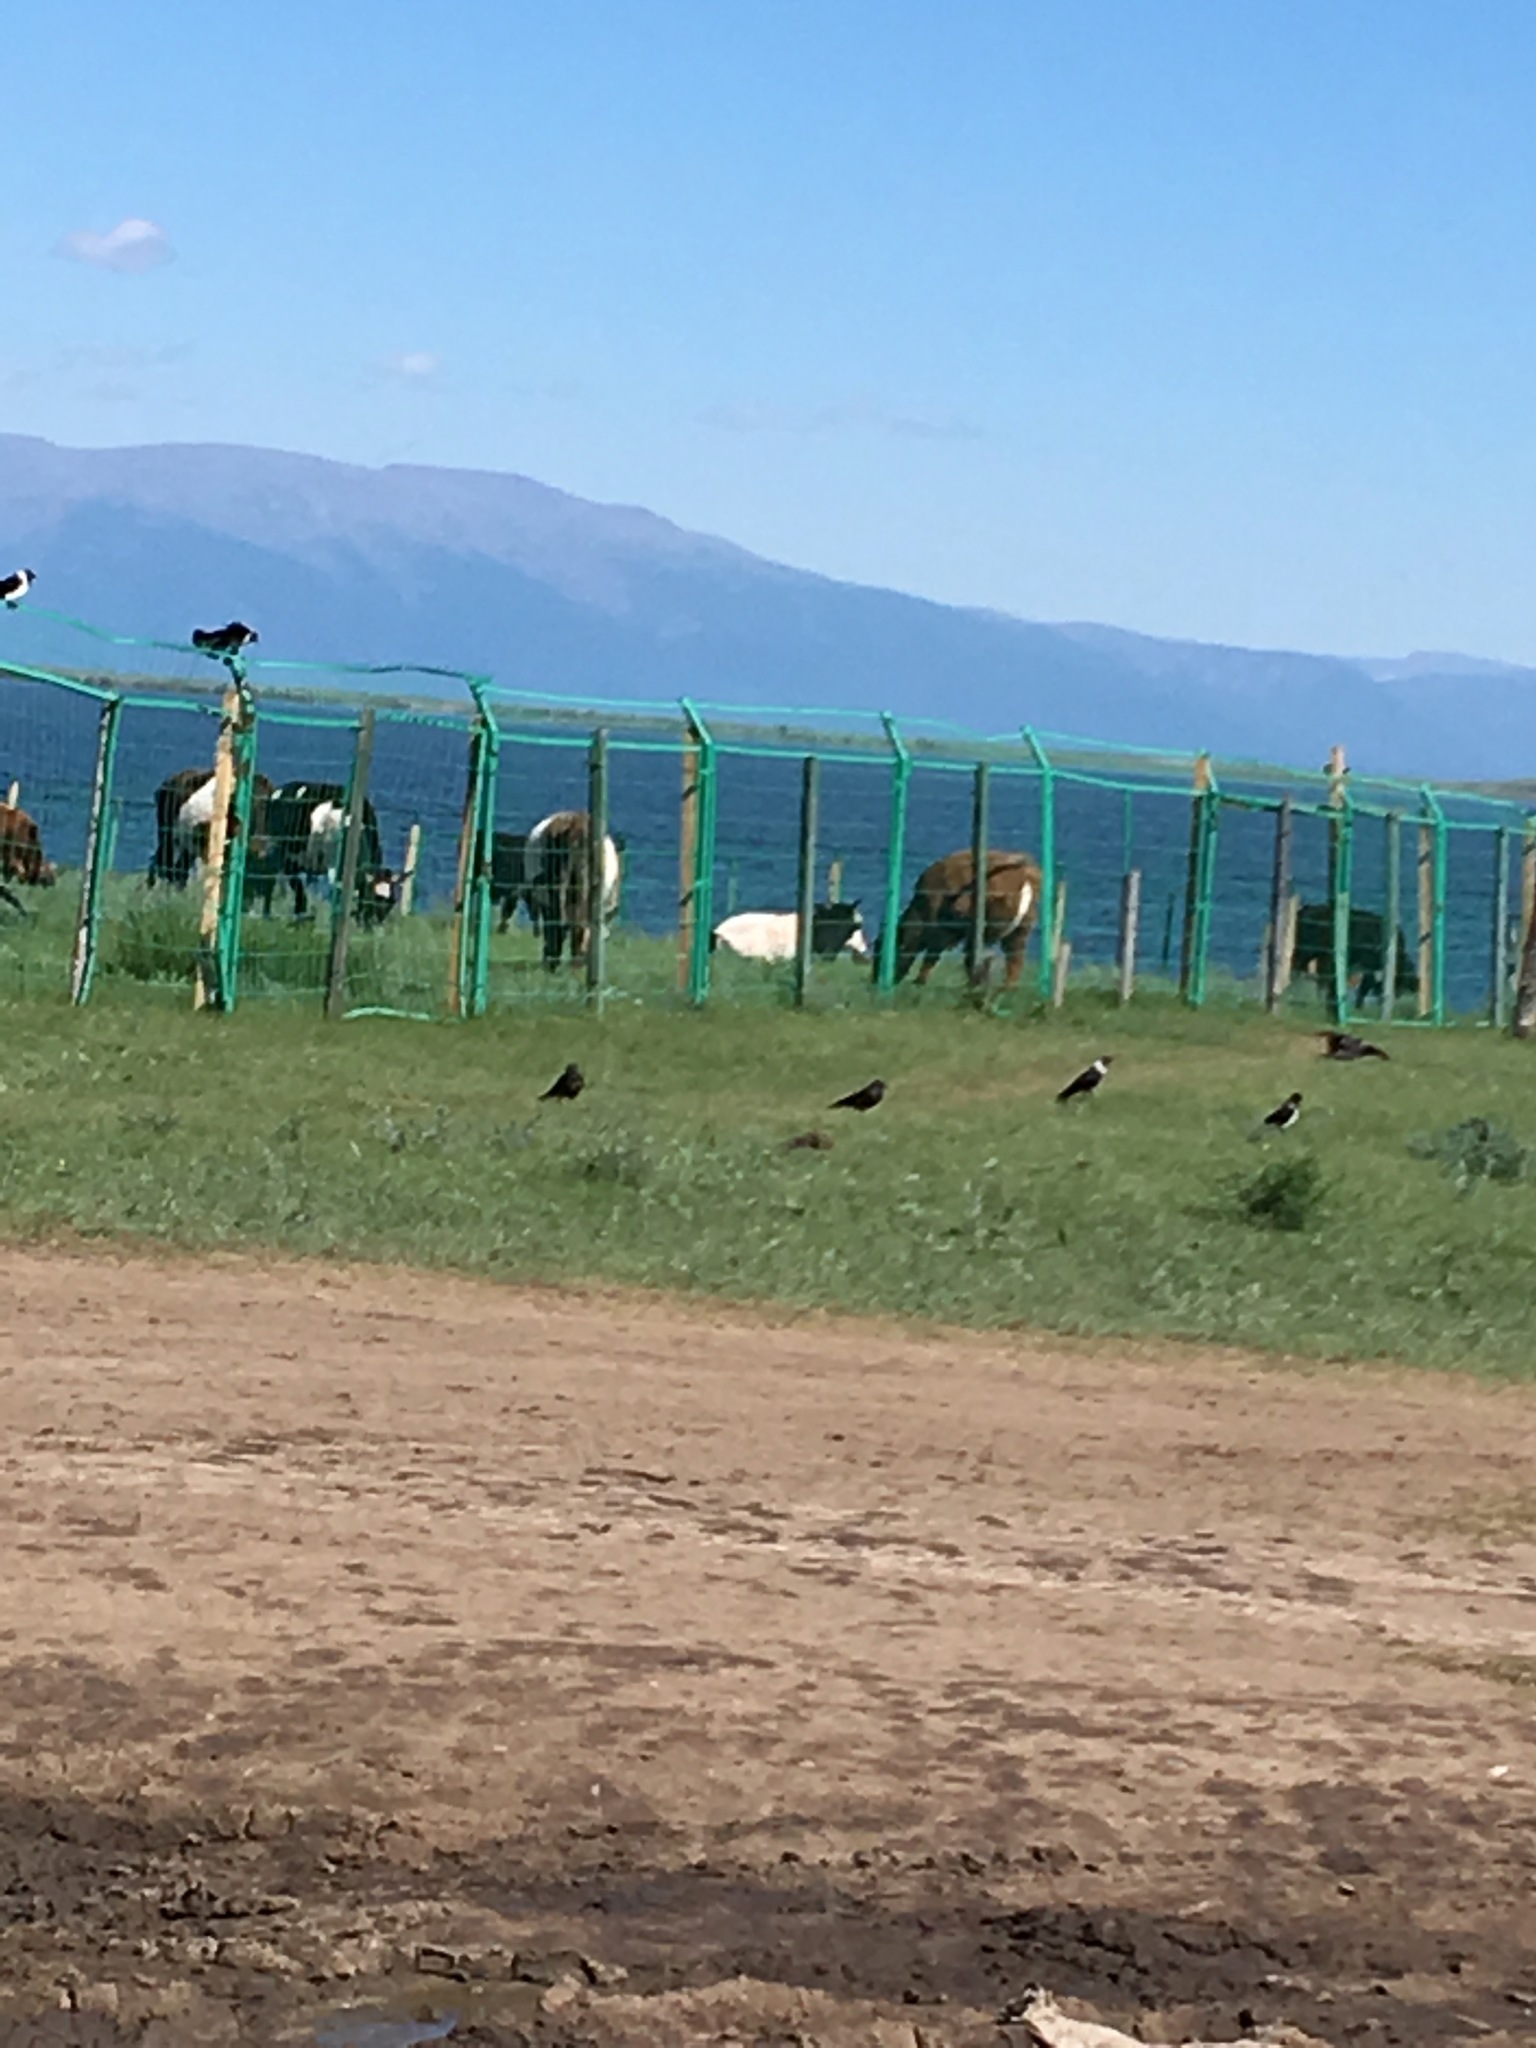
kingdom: Animalia
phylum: Chordata
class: Aves
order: Passeriformes
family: Corvidae
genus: Coloeus
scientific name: Coloeus dauuricus
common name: Daurian jackdaw
